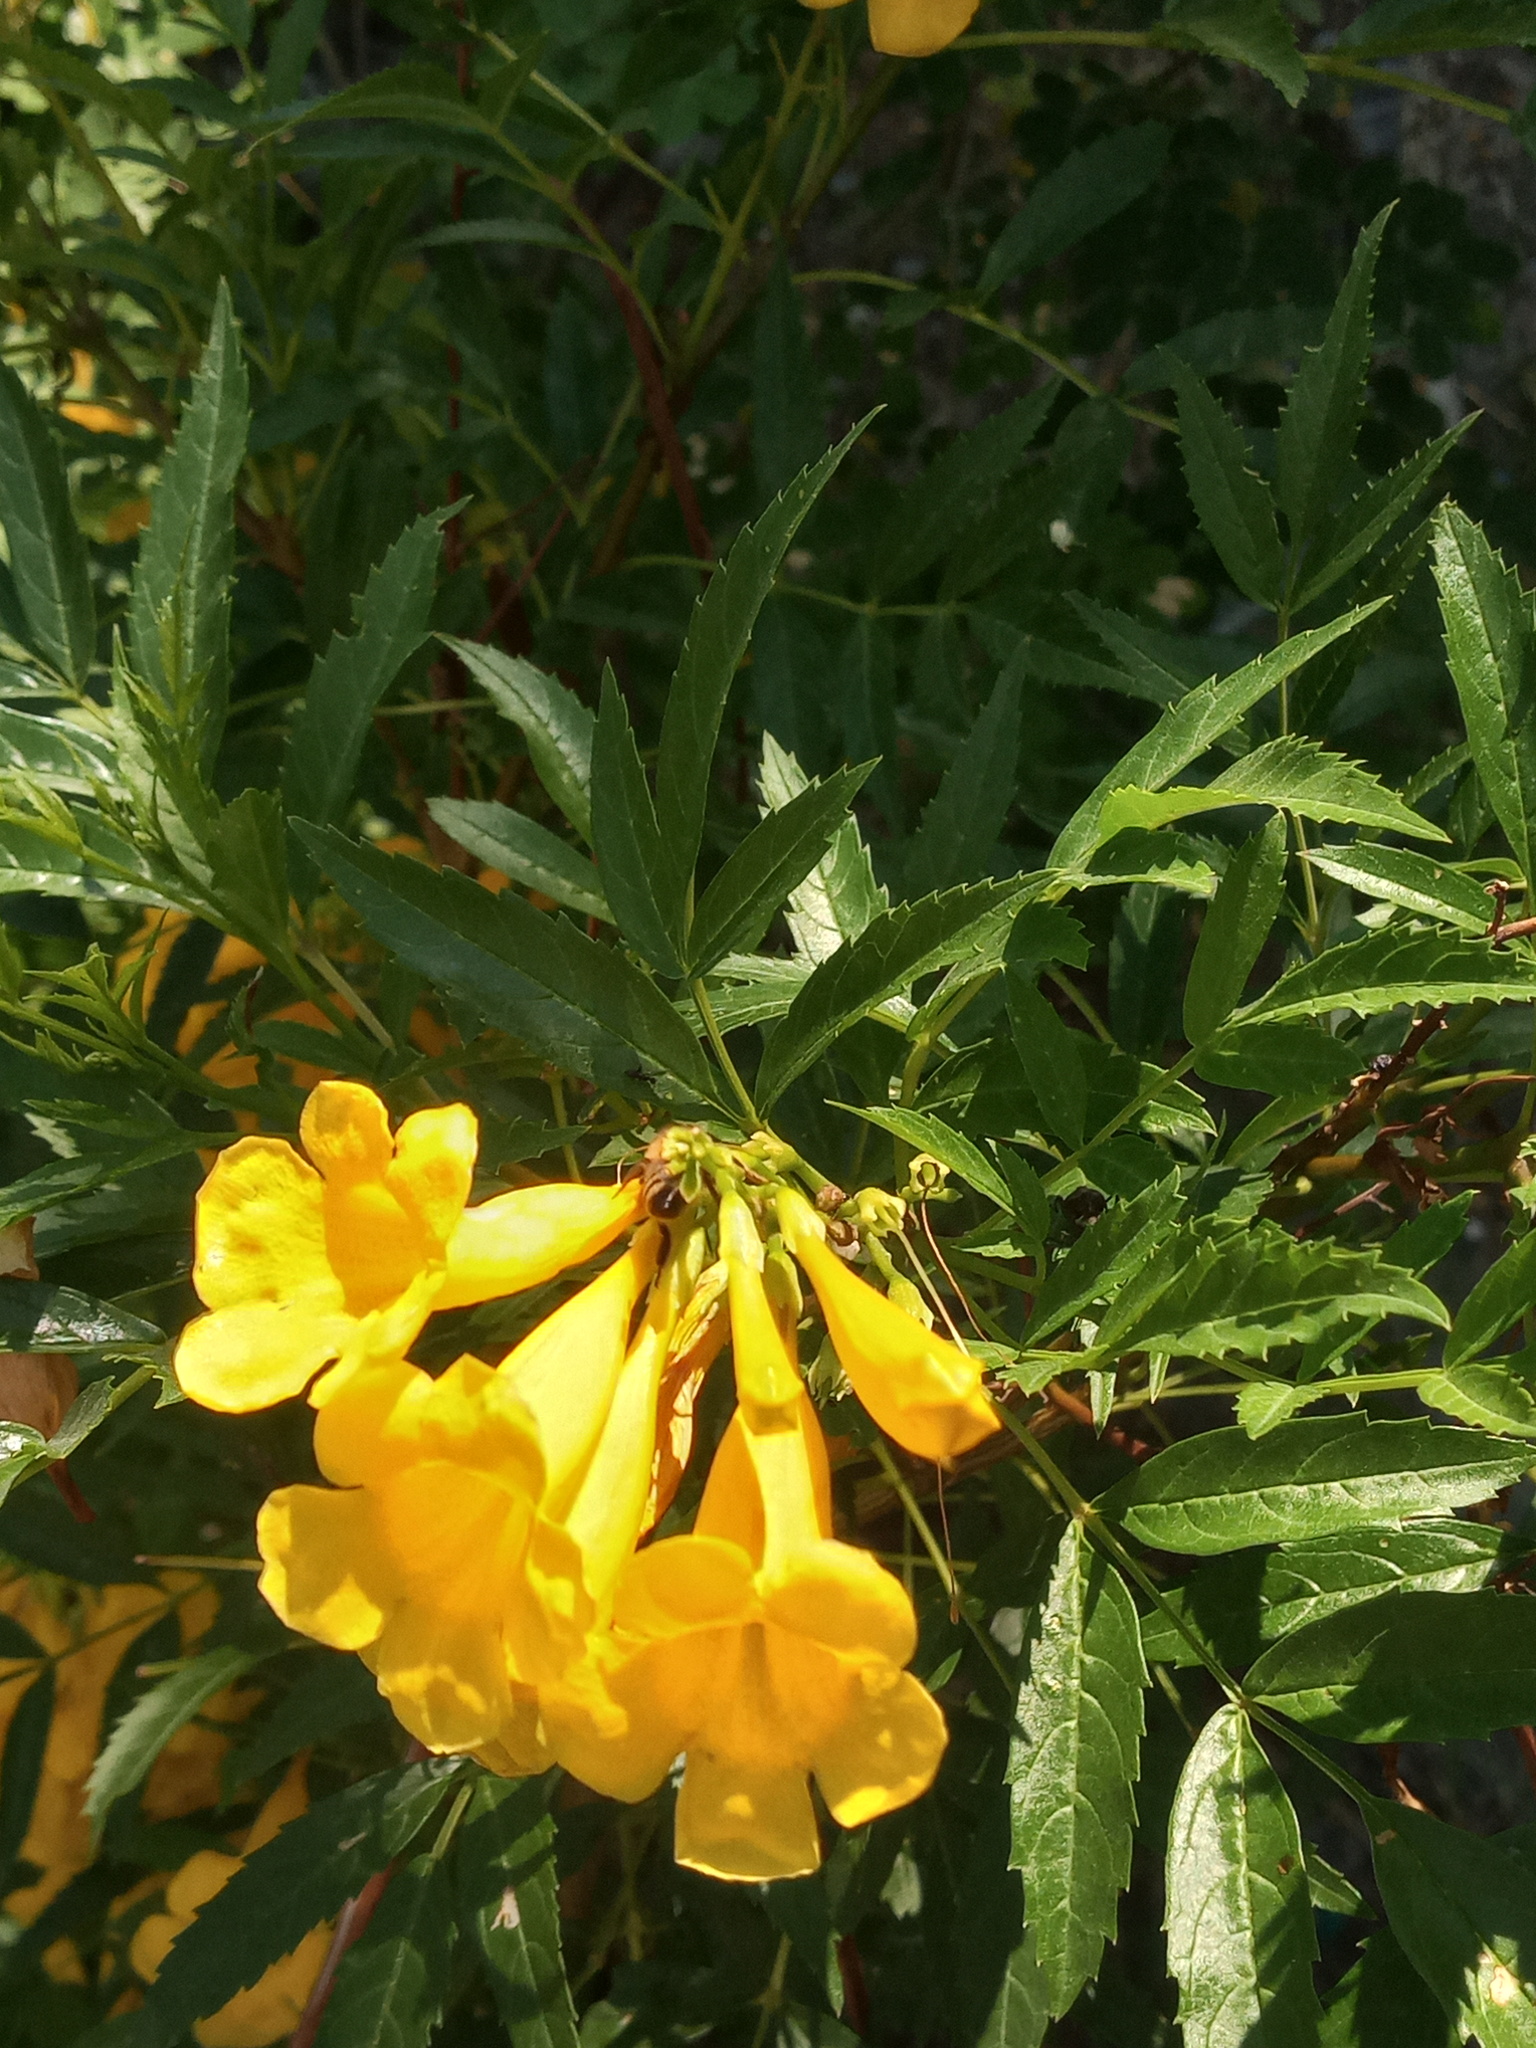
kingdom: Animalia
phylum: Arthropoda
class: Insecta
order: Hymenoptera
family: Apidae
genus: Apis
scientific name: Apis mellifera
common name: Honey bee
